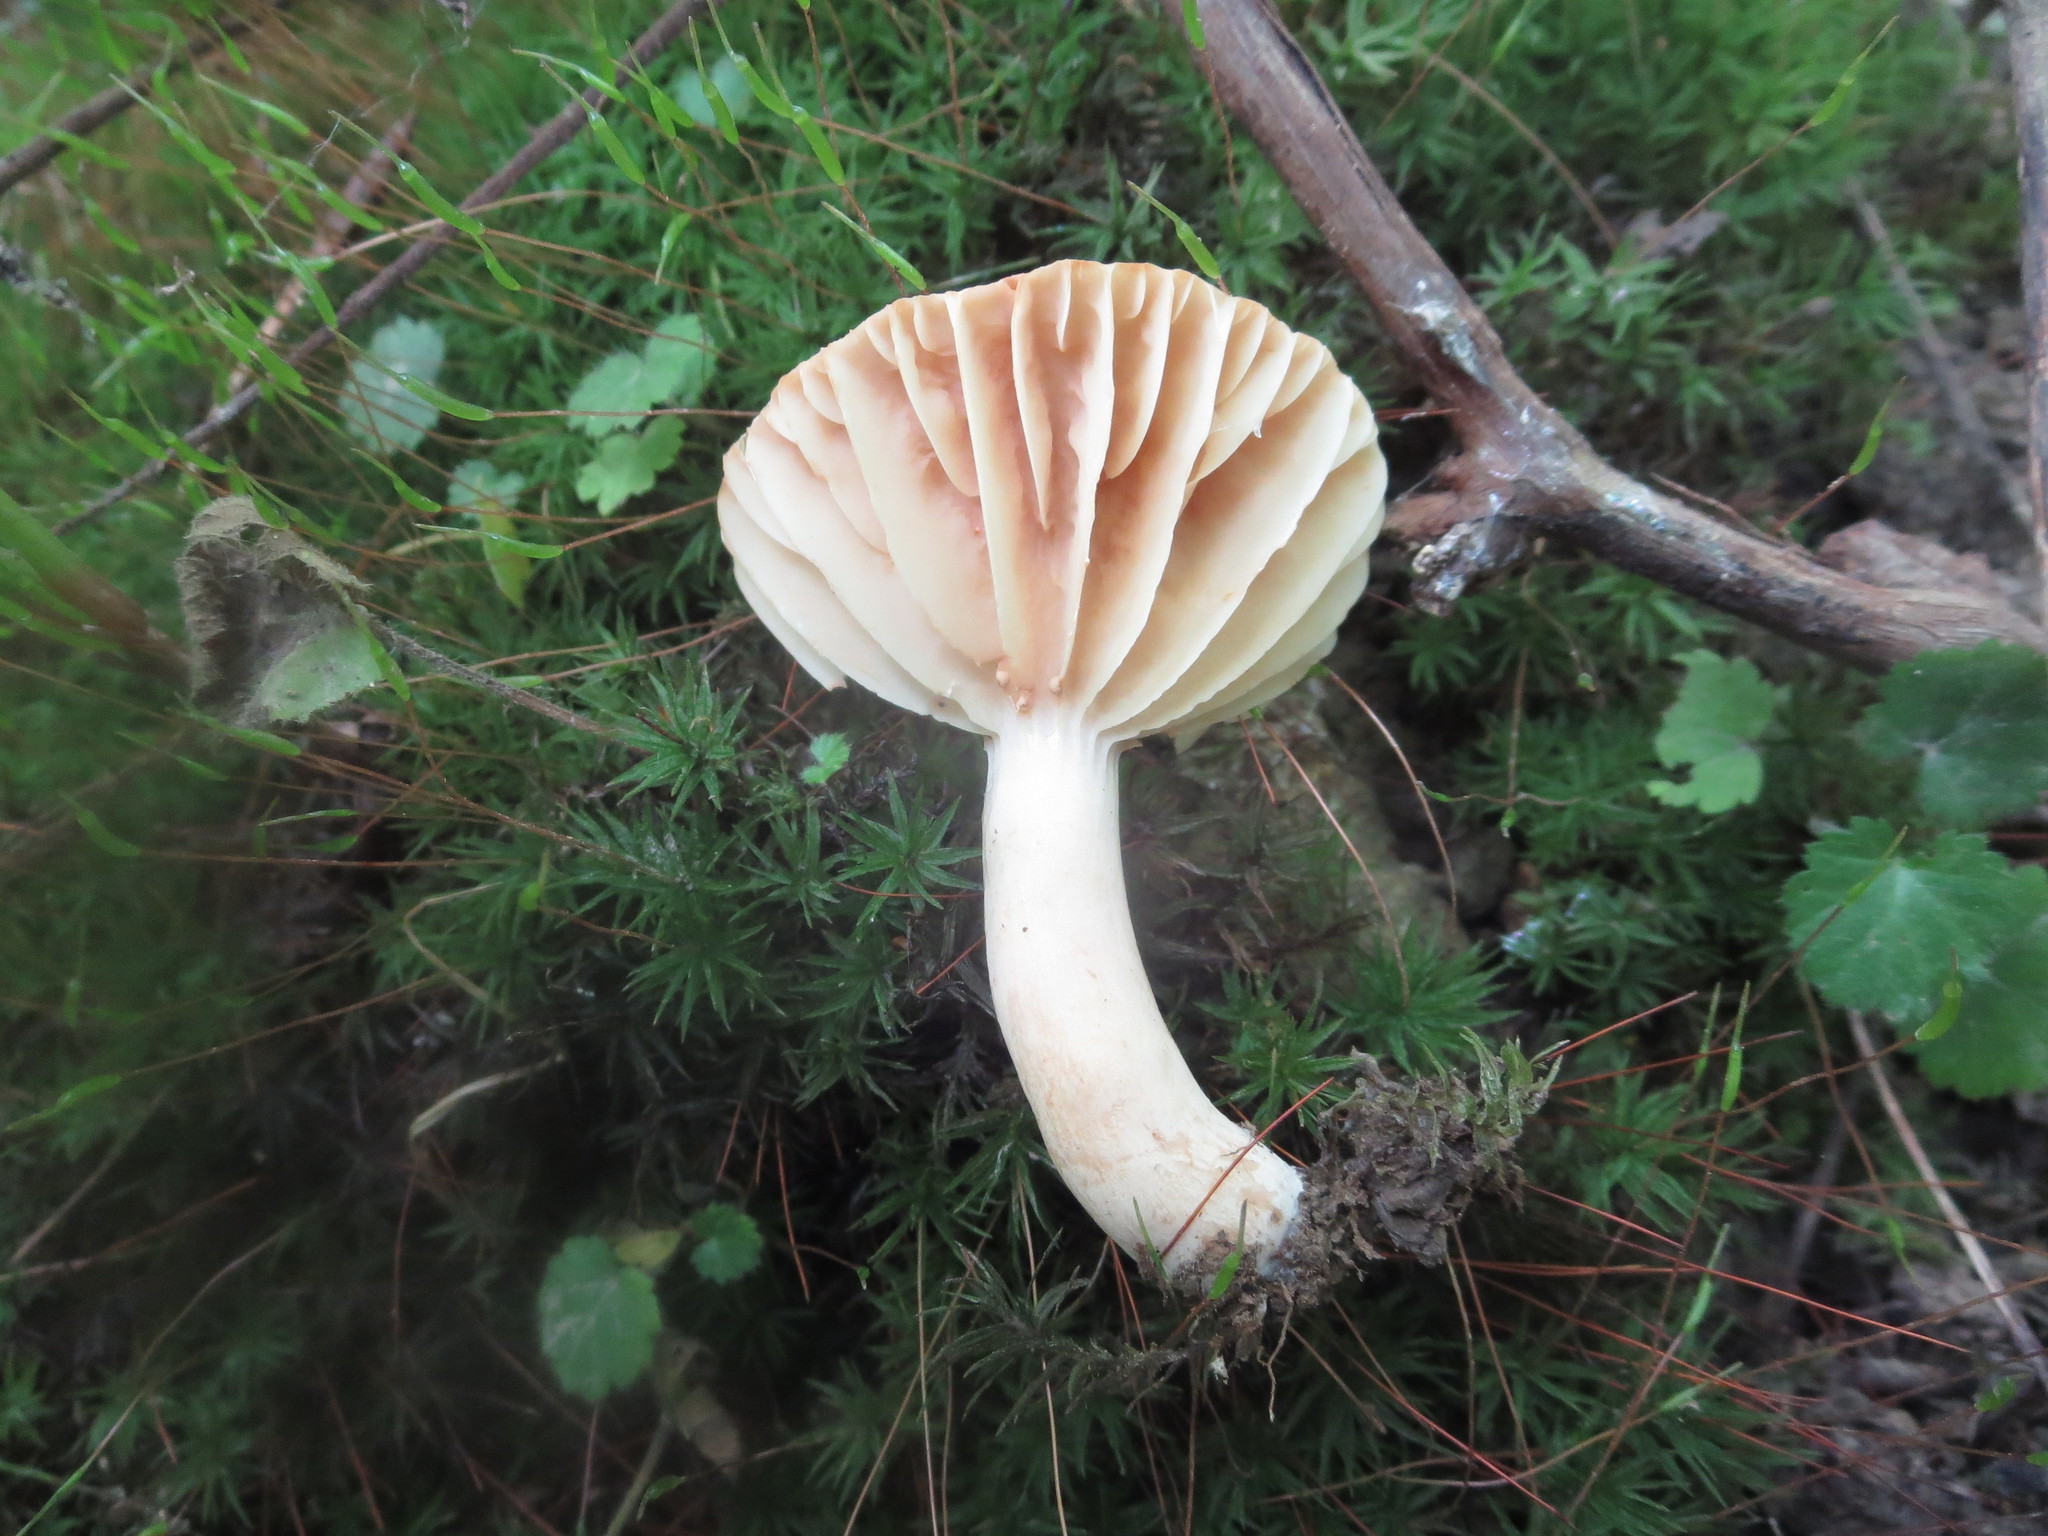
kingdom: Fungi
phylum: Basidiomycota
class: Agaricomycetes
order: Russulales
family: Russulaceae
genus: Lactarius
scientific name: Lactarius subplinthogalus
